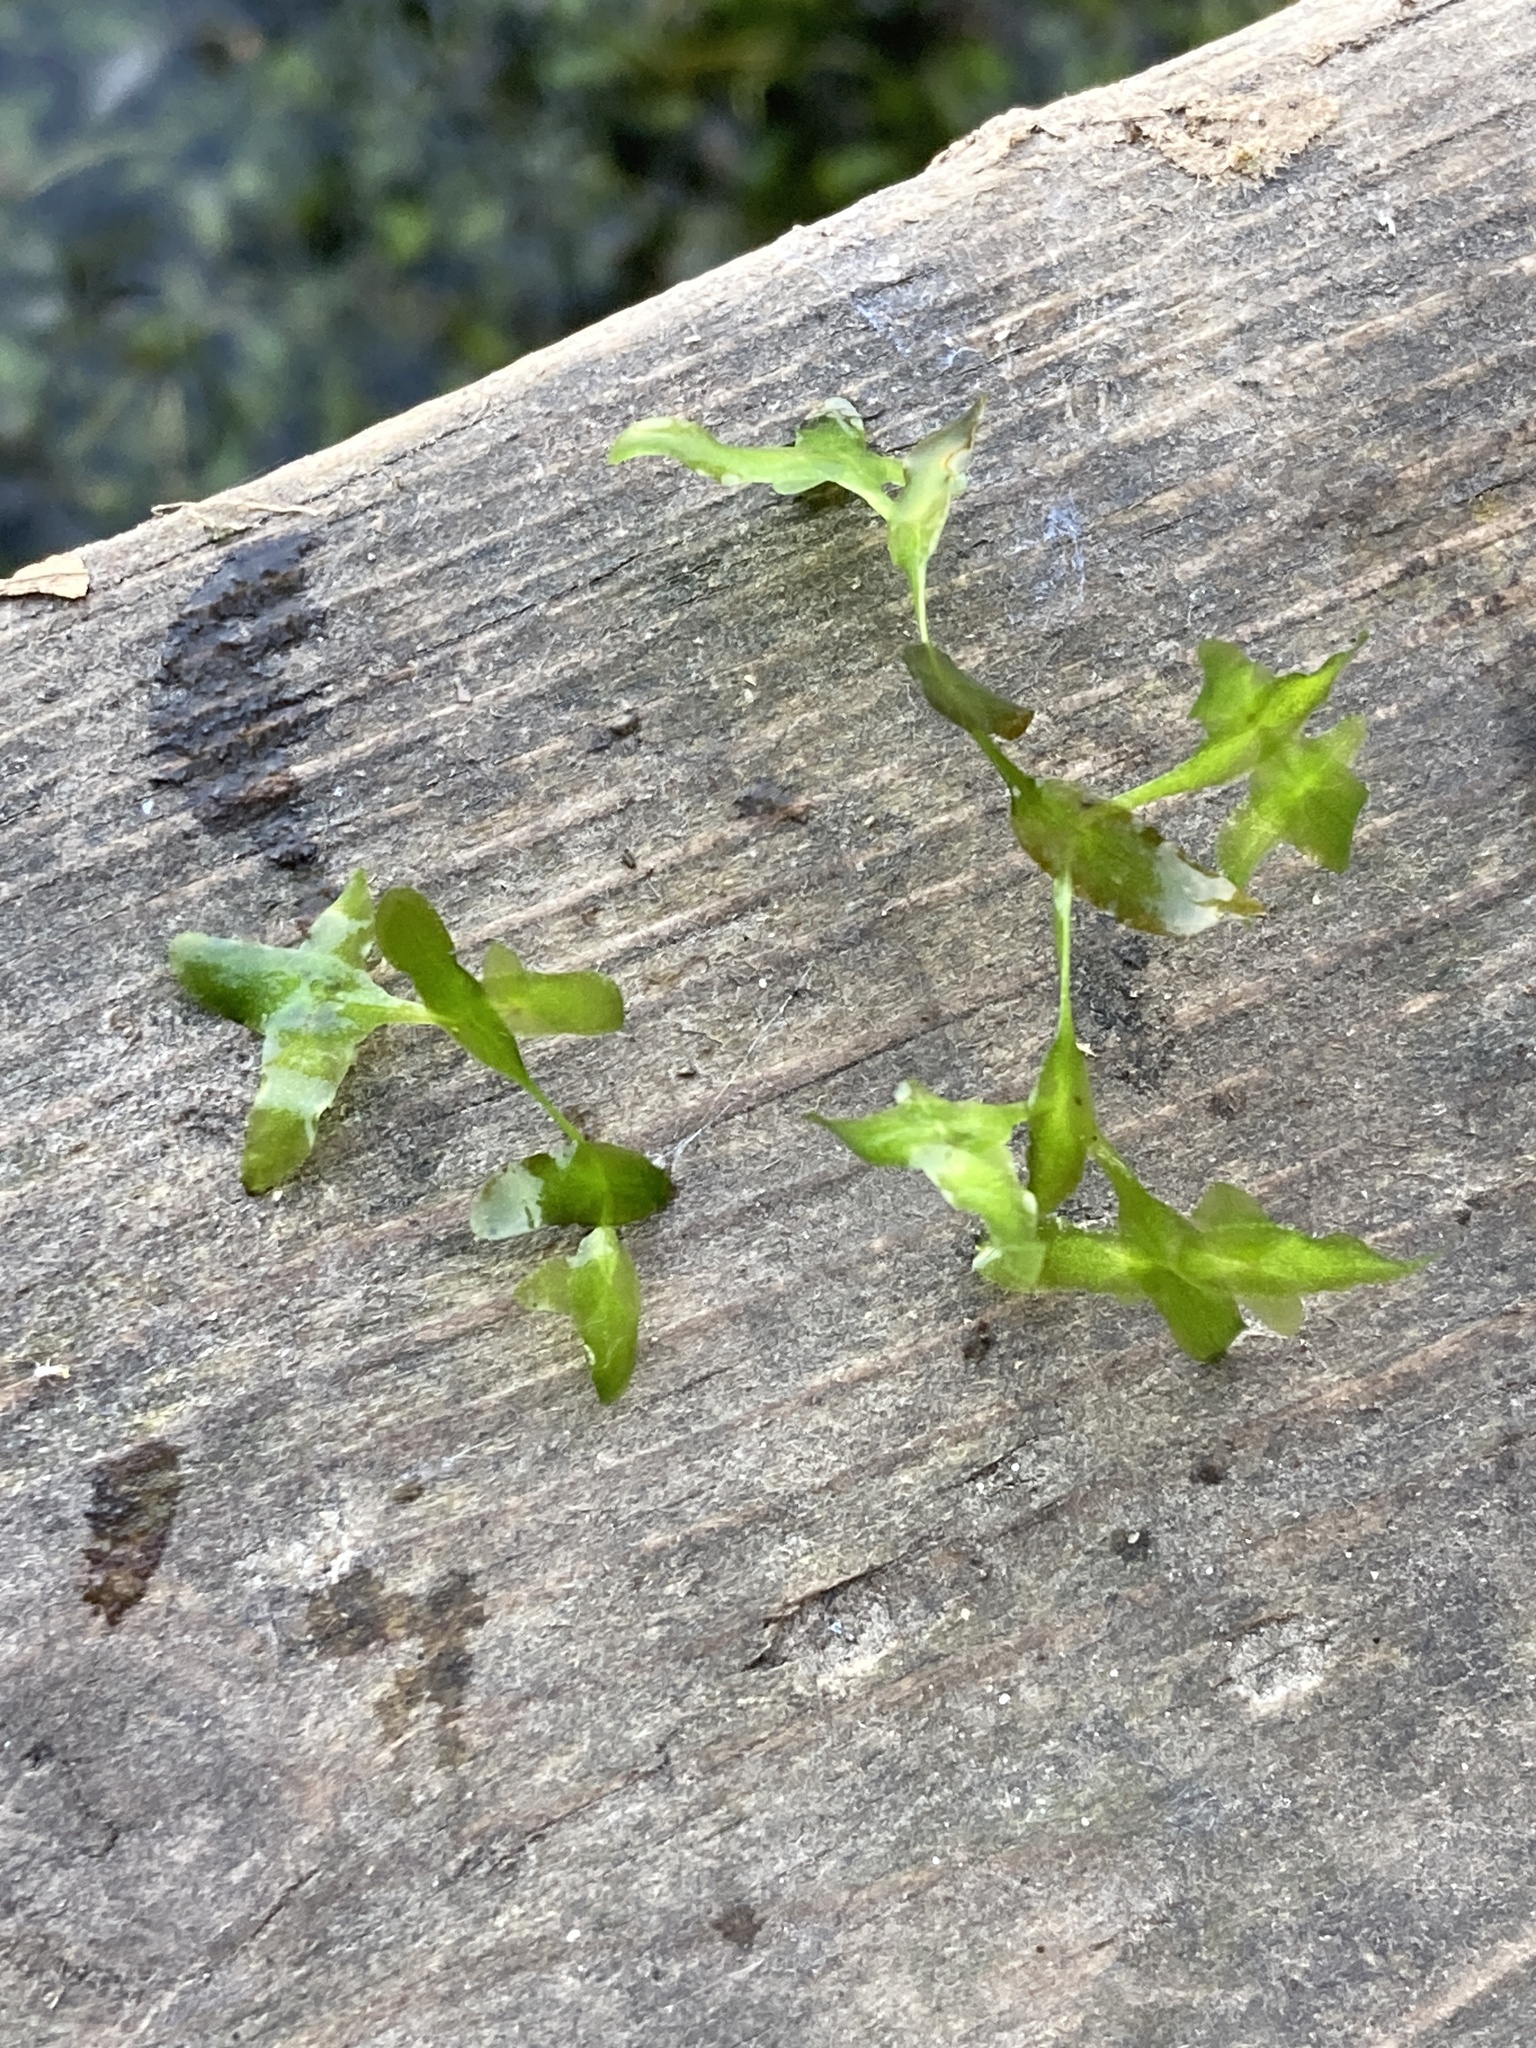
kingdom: Plantae
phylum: Tracheophyta
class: Liliopsida
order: Alismatales
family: Araceae
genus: Lemna
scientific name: Lemna trisulca
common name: Ivy-leaved duckweed
